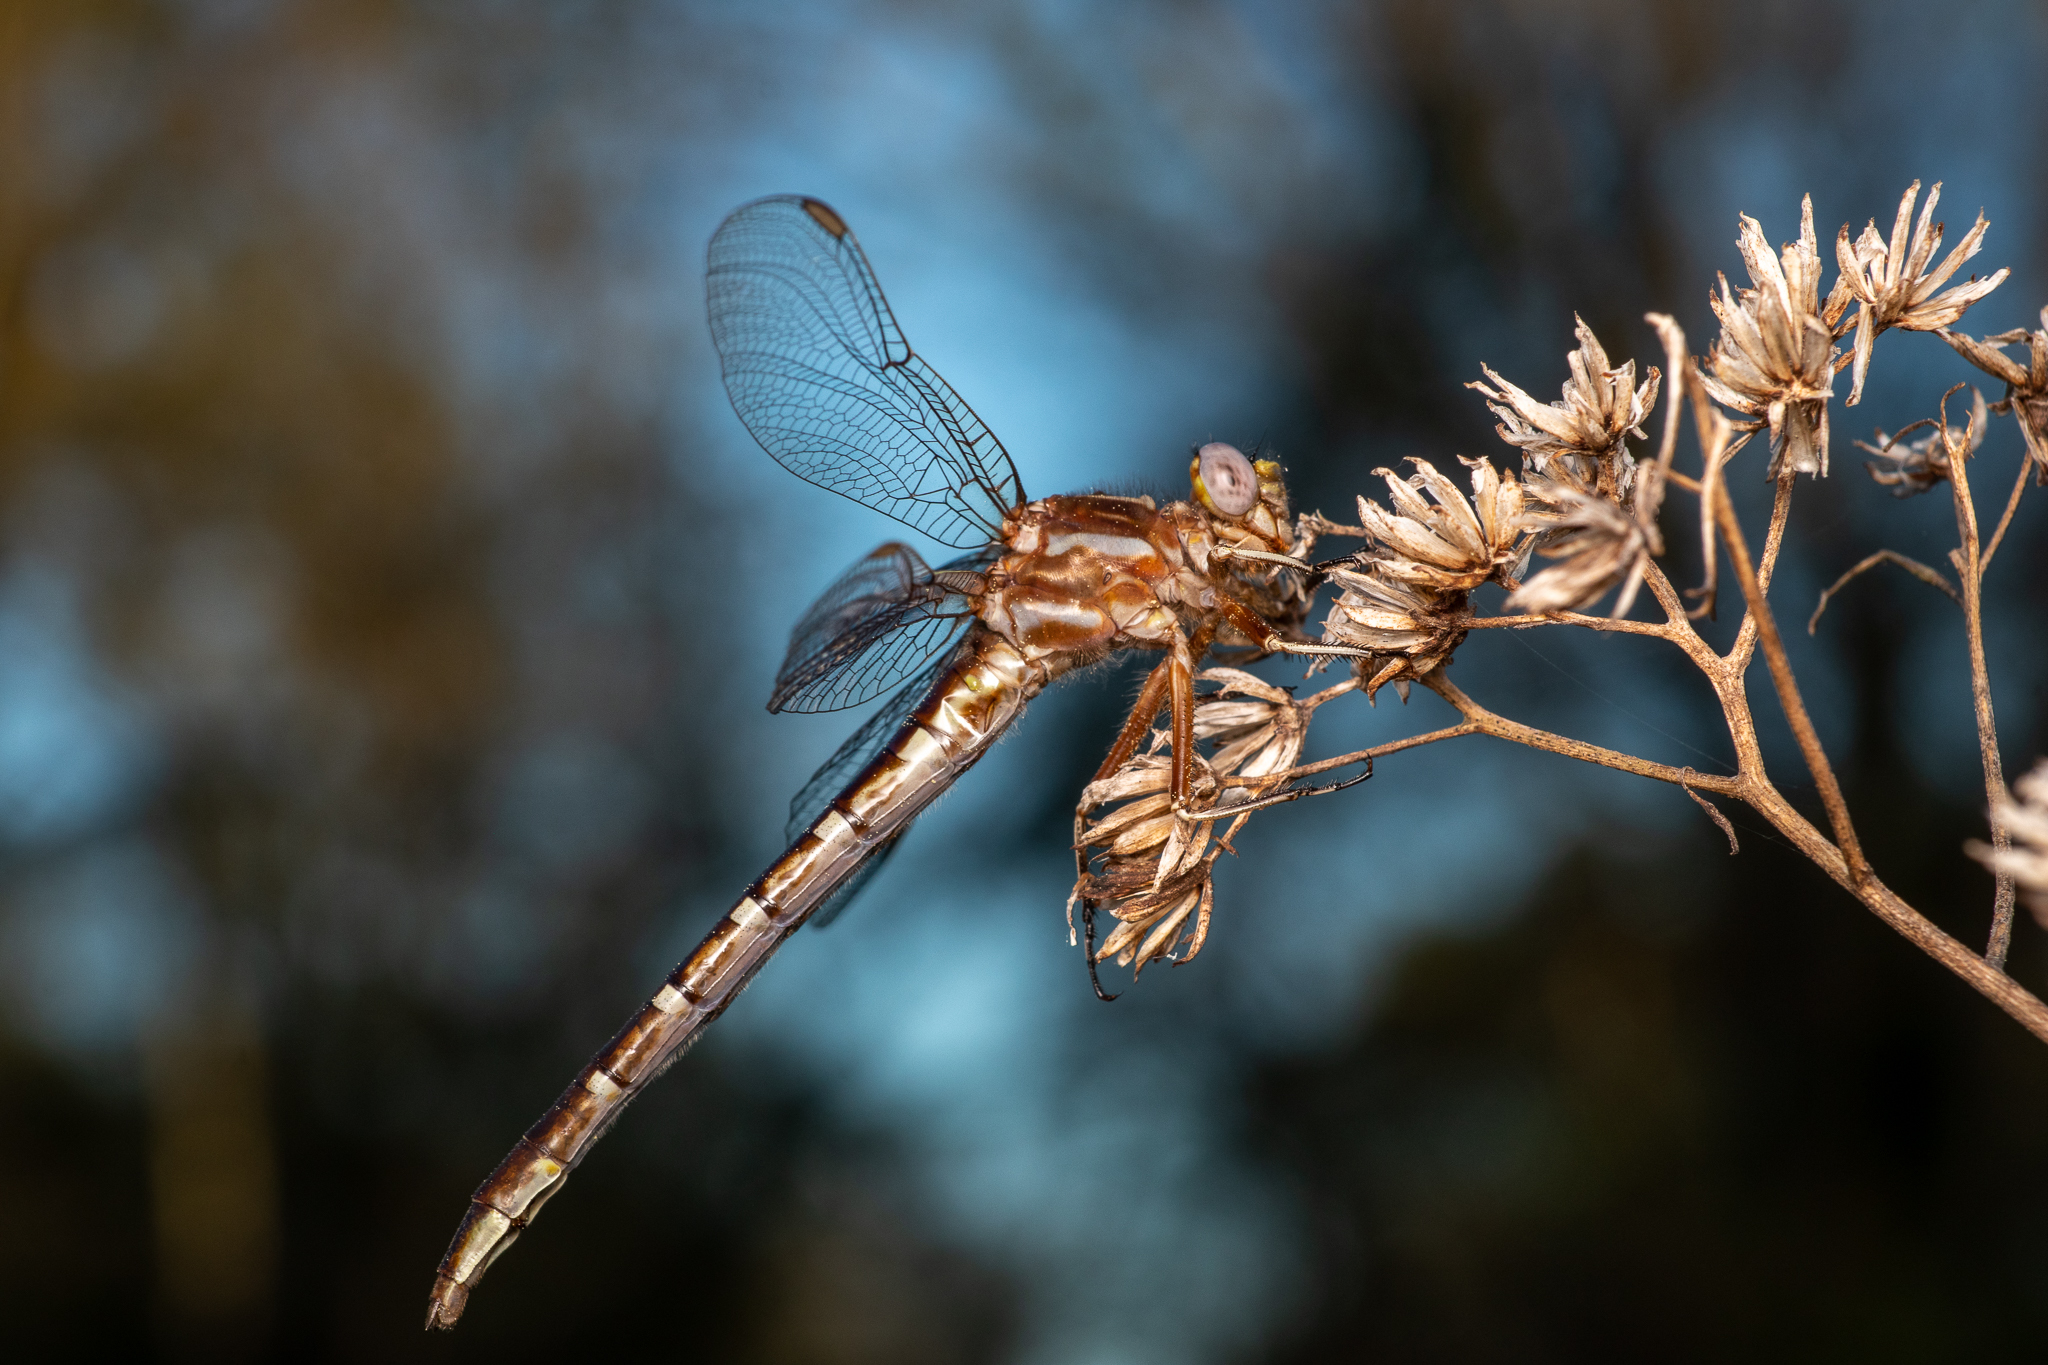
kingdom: Animalia
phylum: Arthropoda
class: Insecta
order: Odonata
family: Gomphidae
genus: Phanogomphus
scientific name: Phanogomphus lividus
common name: Ashy clubtail
